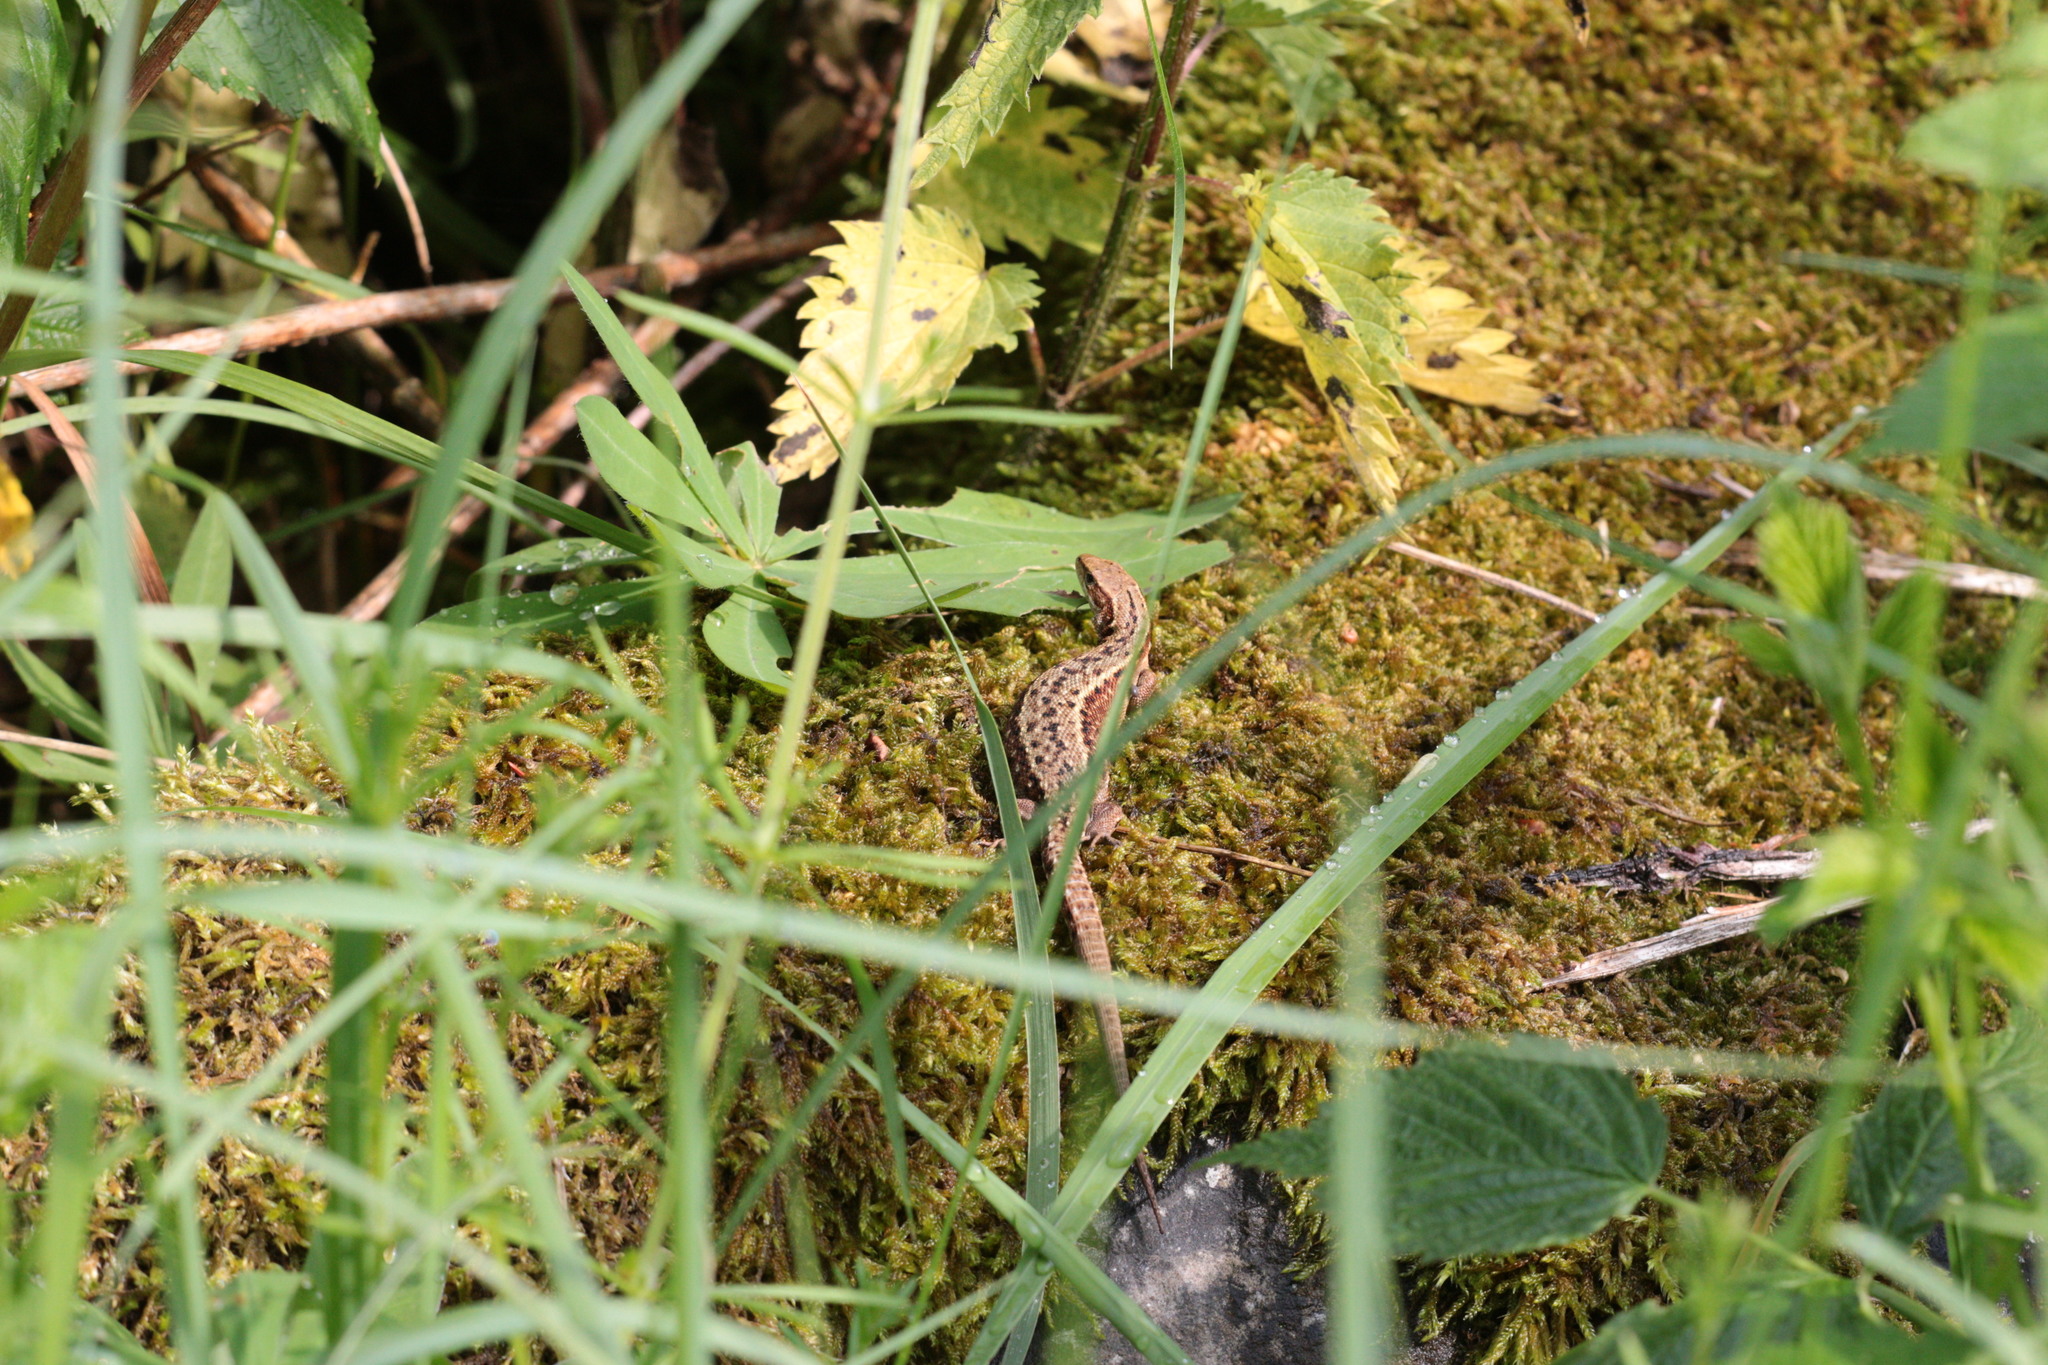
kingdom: Animalia
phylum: Chordata
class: Squamata
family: Lacertidae
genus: Zootoca
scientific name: Zootoca vivipara
